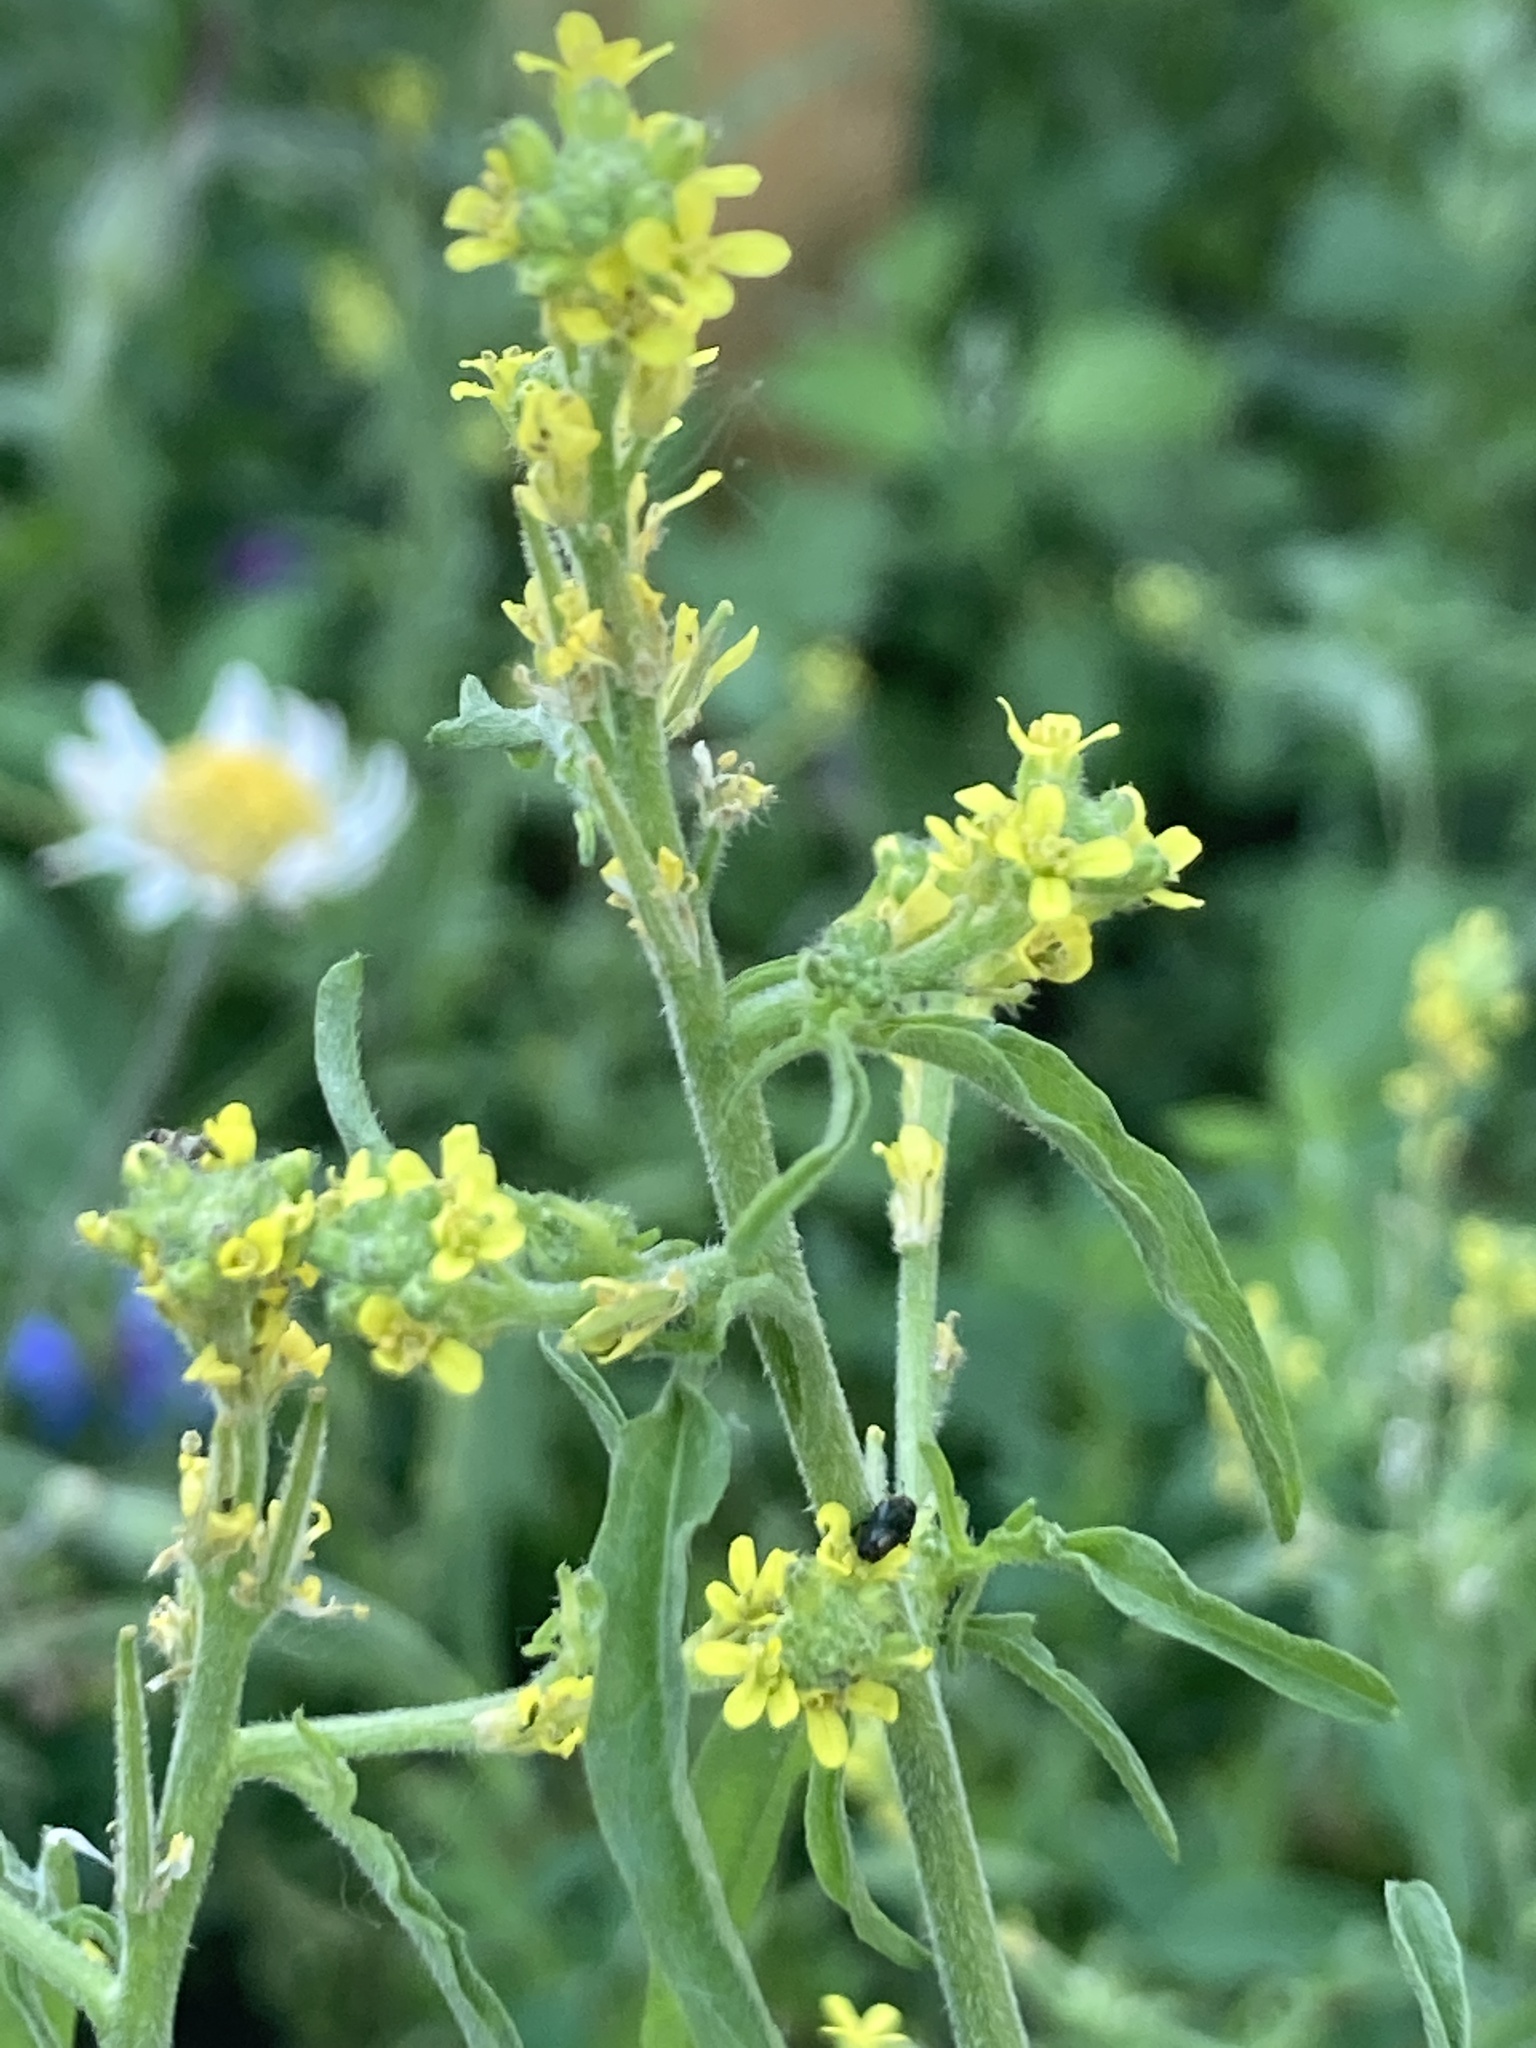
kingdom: Plantae
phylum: Tracheophyta
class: Magnoliopsida
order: Brassicales
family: Brassicaceae
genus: Sisymbrium
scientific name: Sisymbrium officinale
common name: Hedge mustard
